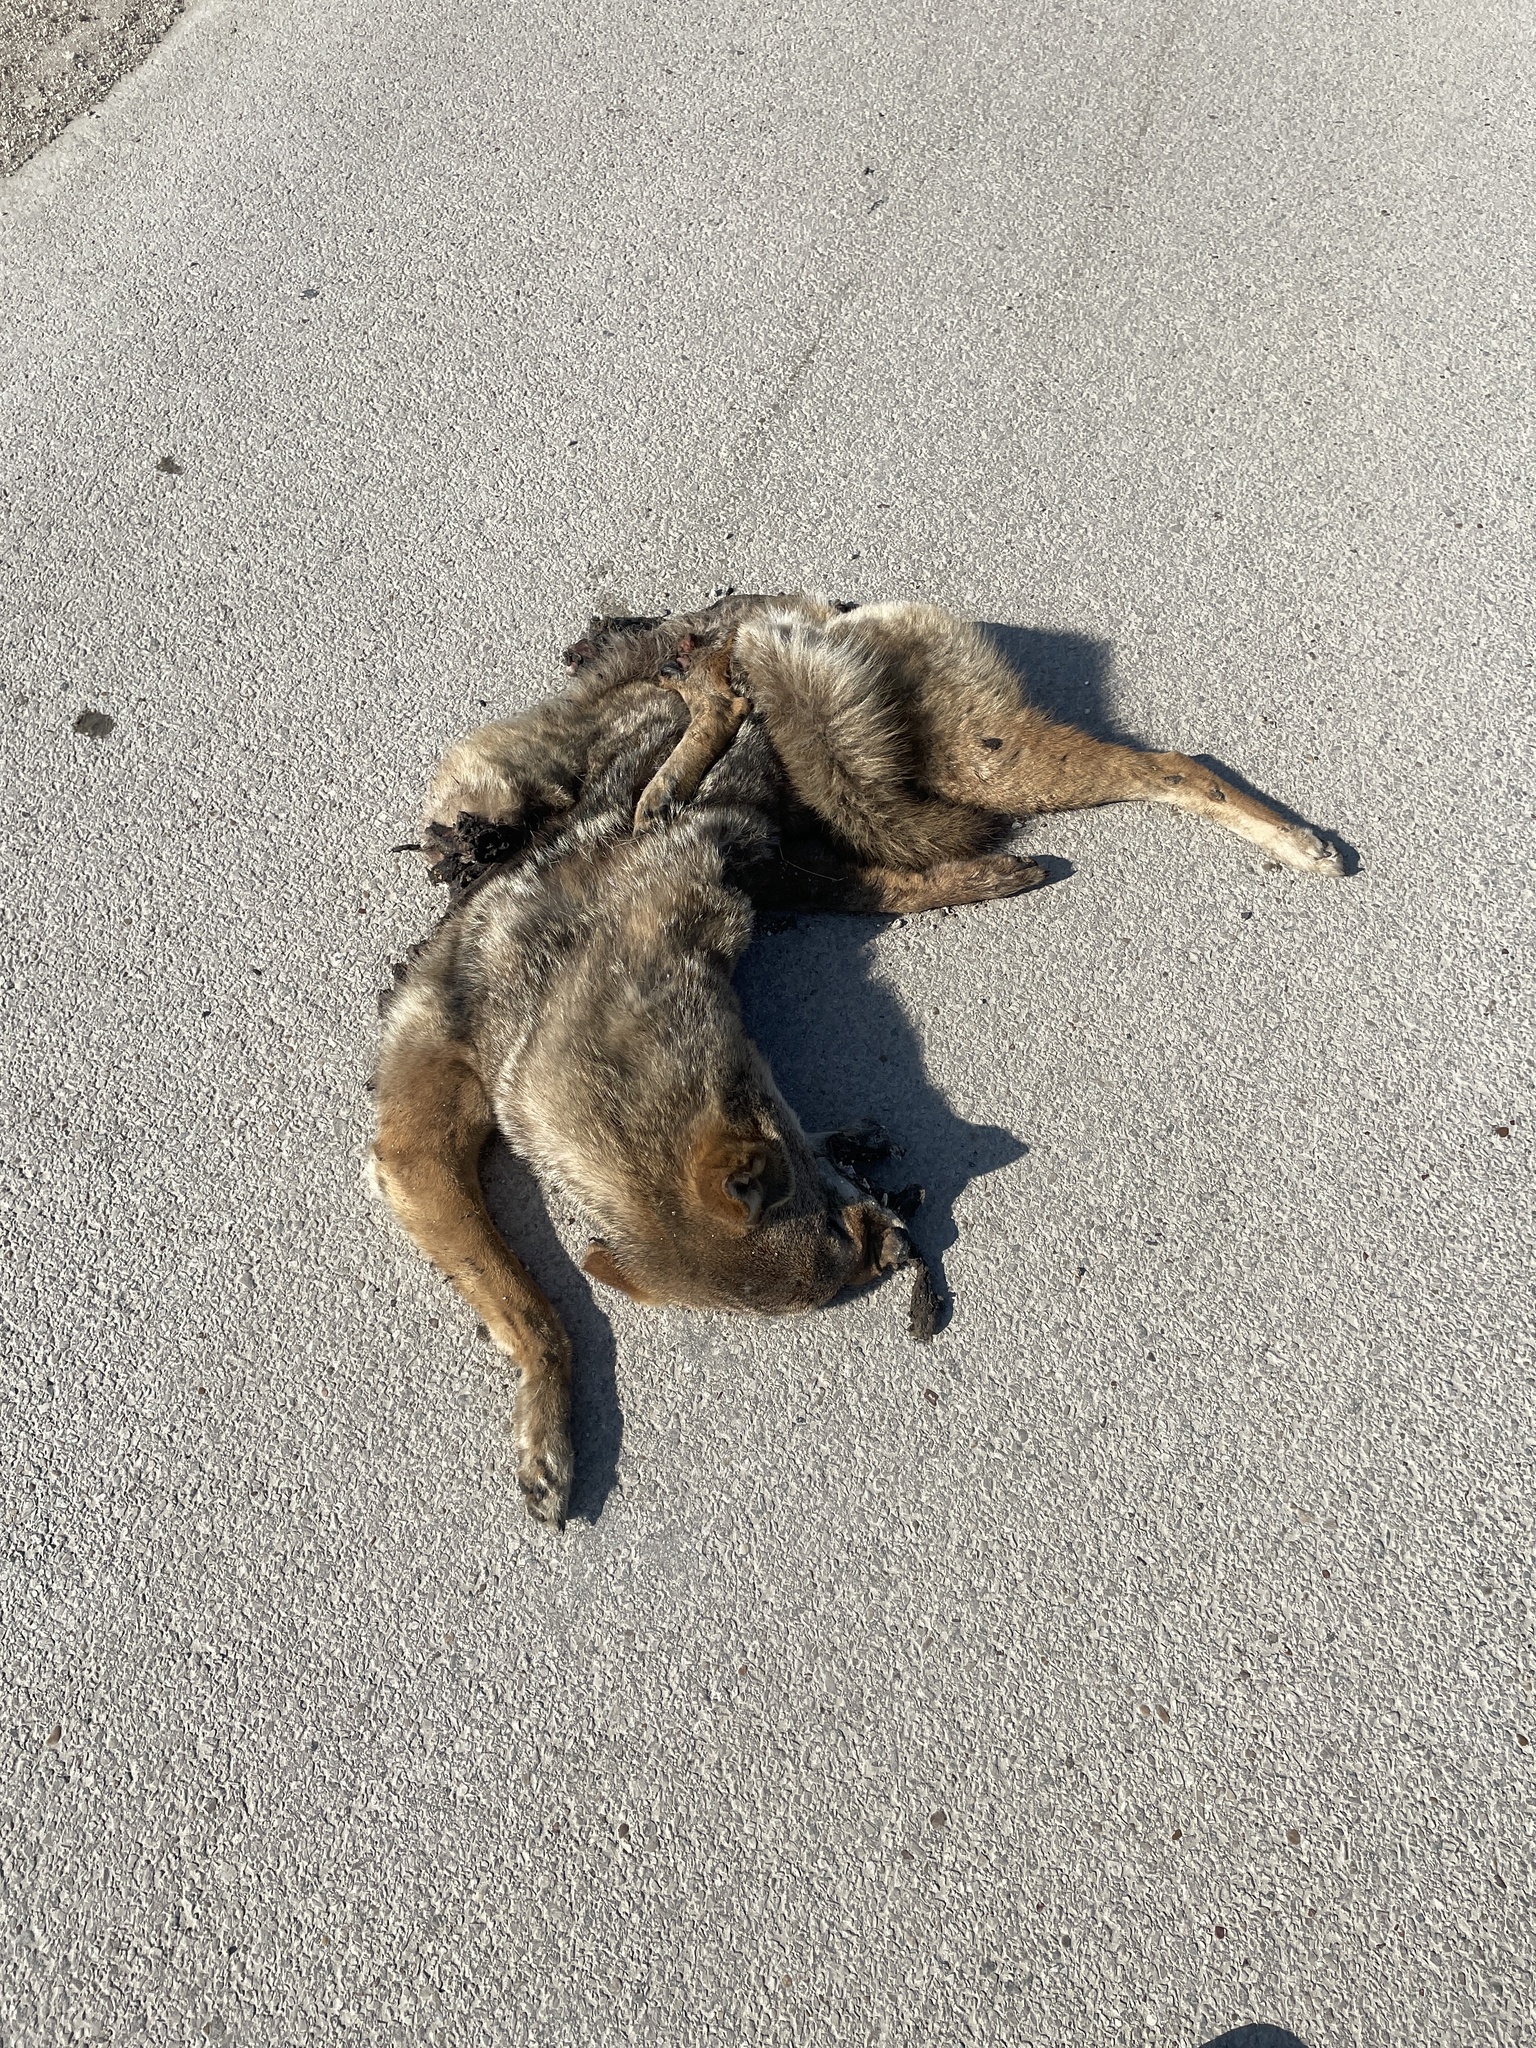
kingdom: Animalia
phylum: Chordata
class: Mammalia
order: Carnivora
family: Canidae
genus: Canis
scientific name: Canis latrans
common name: Coyote
